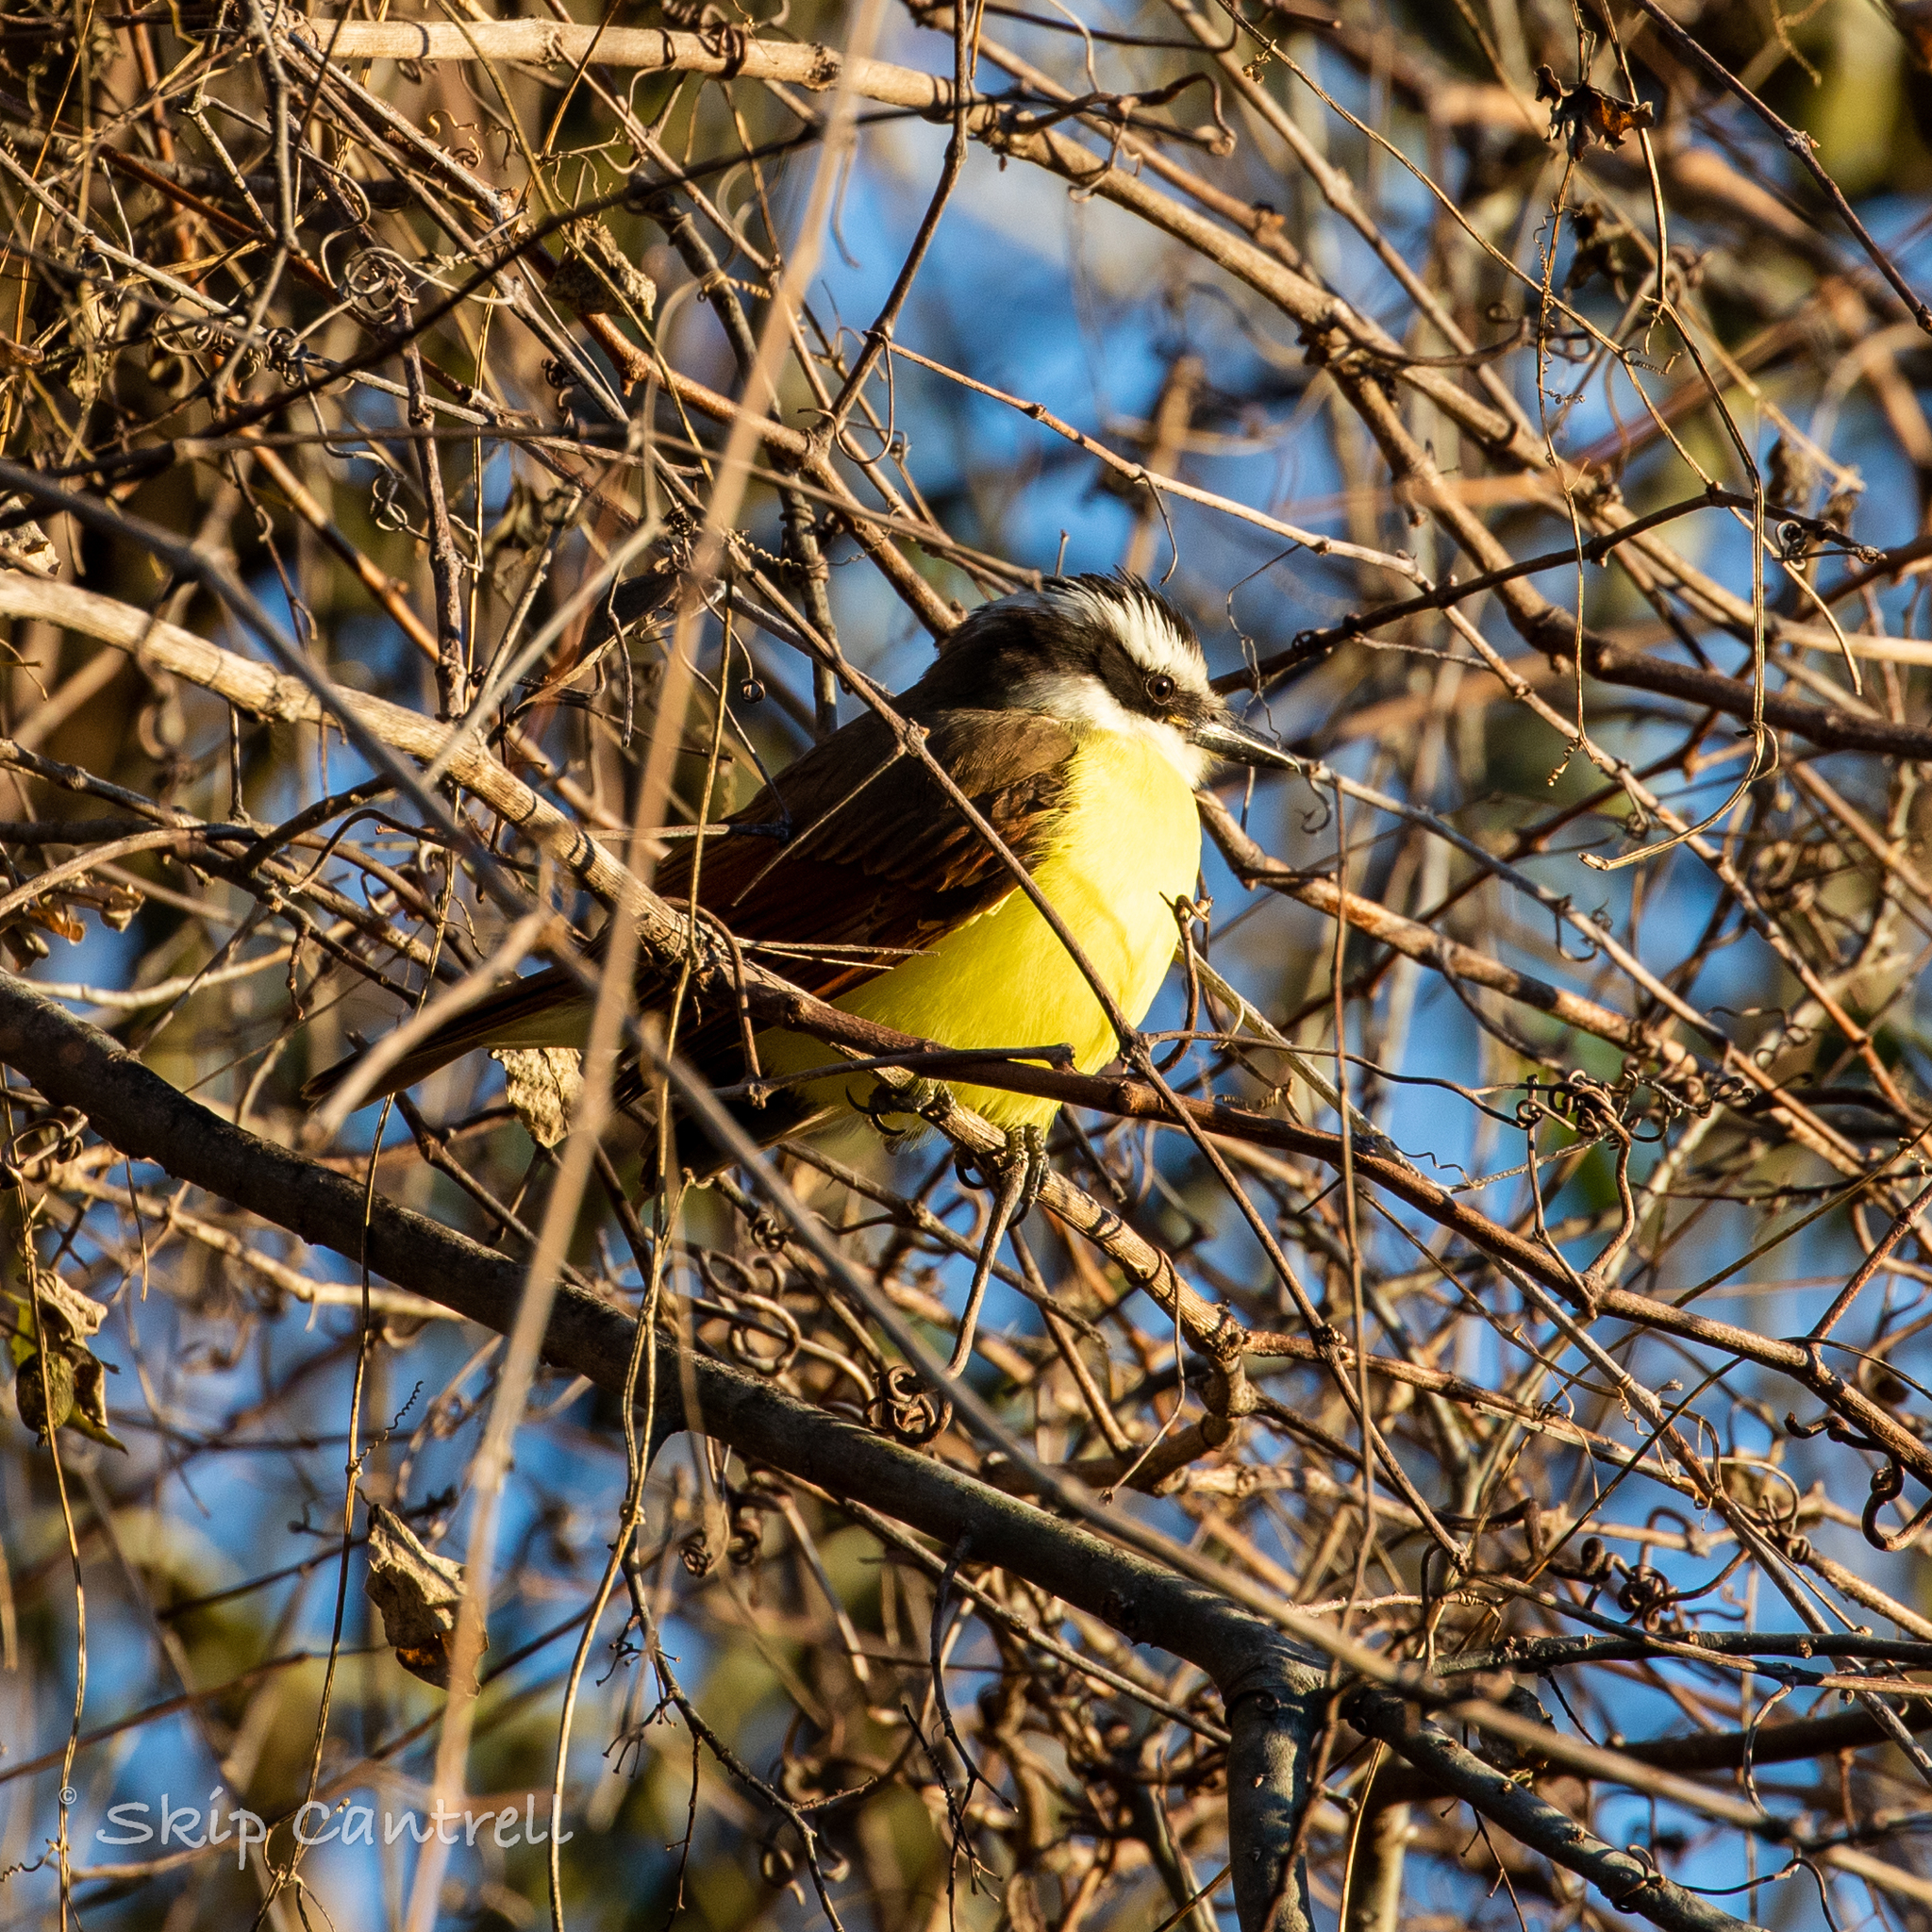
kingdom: Animalia
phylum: Chordata
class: Aves
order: Passeriformes
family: Tyrannidae
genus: Pitangus
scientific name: Pitangus sulphuratus
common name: Great kiskadee
